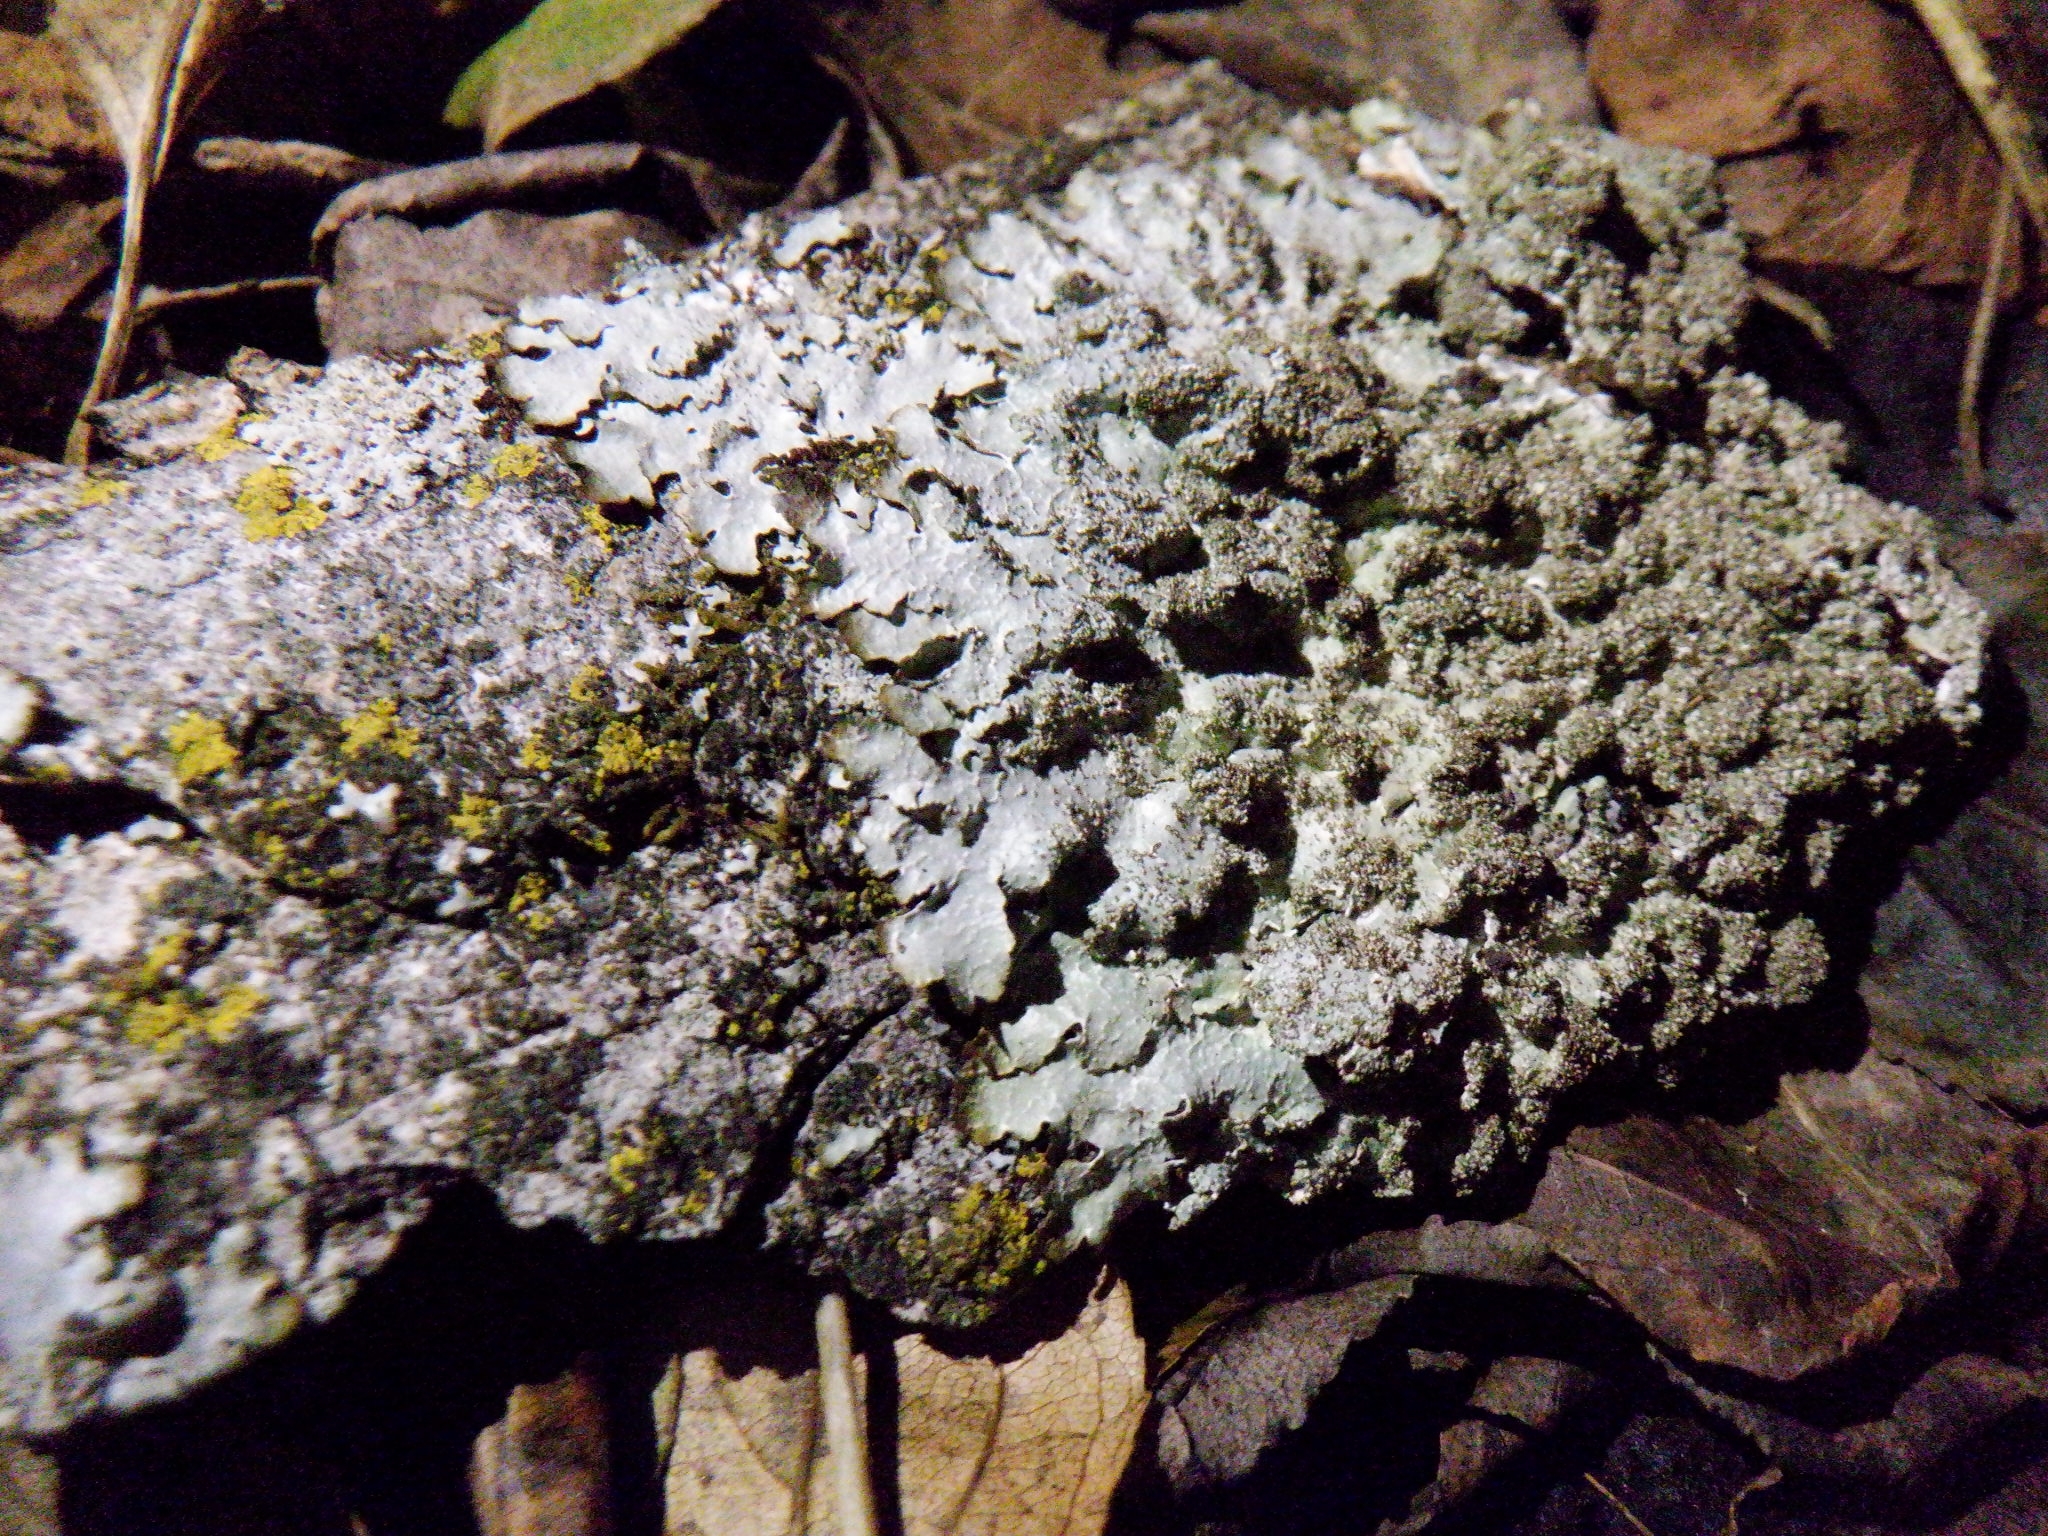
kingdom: Fungi
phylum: Ascomycota
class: Lecanoromycetes
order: Lecanorales
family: Parmeliaceae
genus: Punctelia
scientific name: Punctelia rudecta
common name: Rough speckled shield lichen
